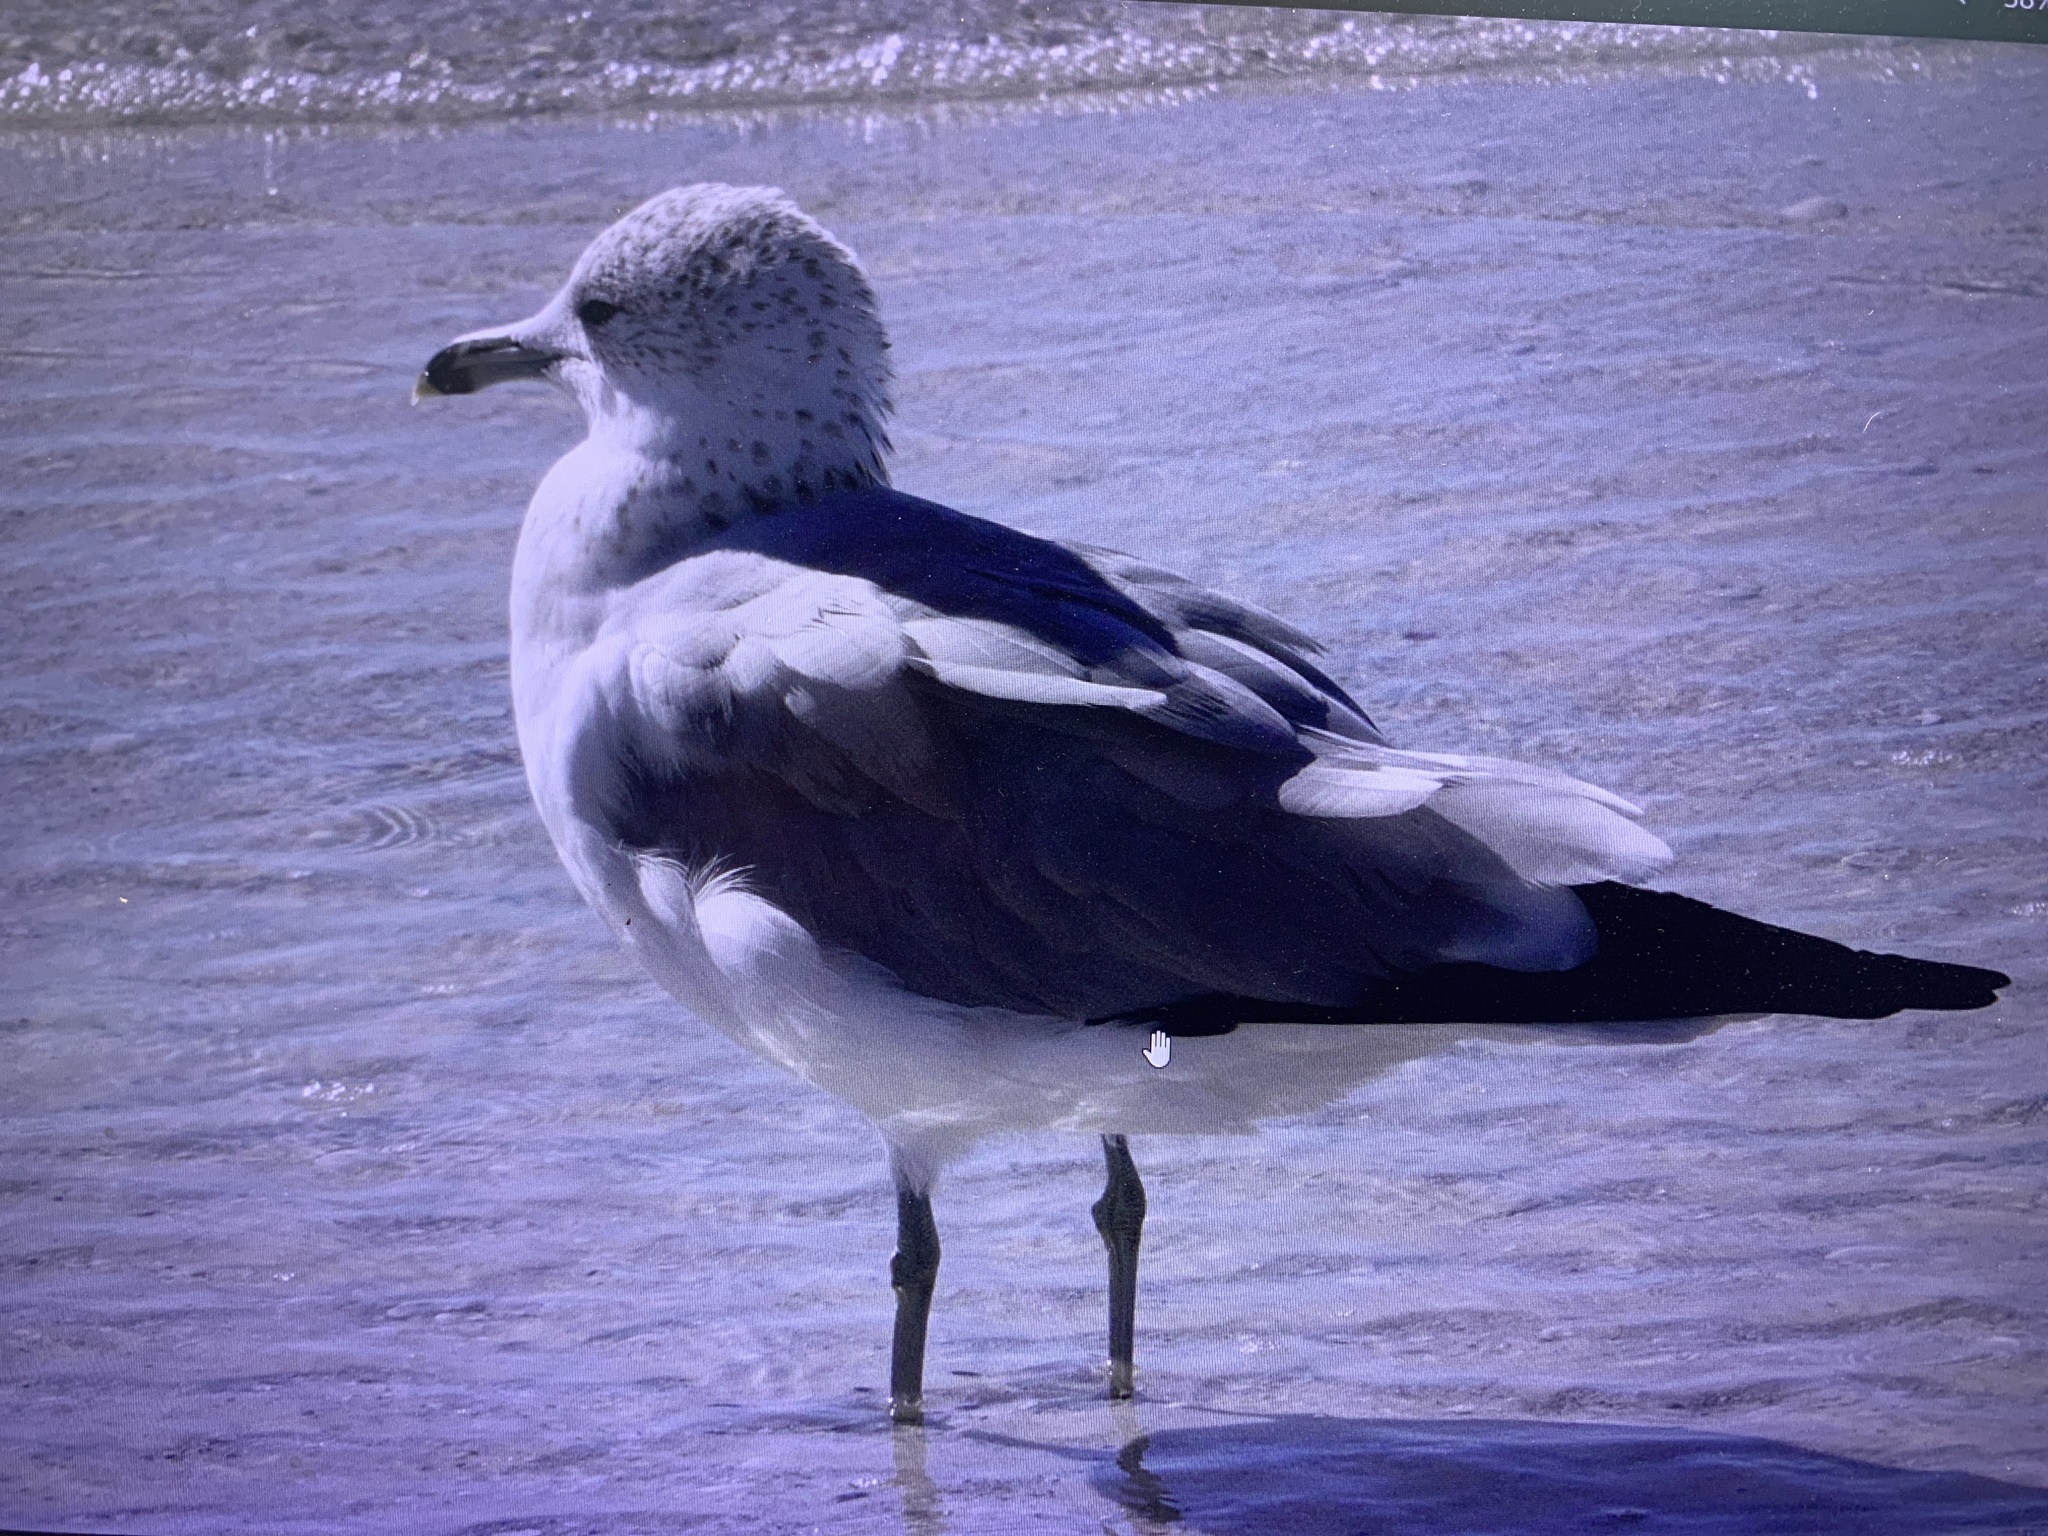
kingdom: Animalia
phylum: Chordata
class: Aves
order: Charadriiformes
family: Laridae
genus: Larus
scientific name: Larus delawarensis
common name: Ring-billed gull
